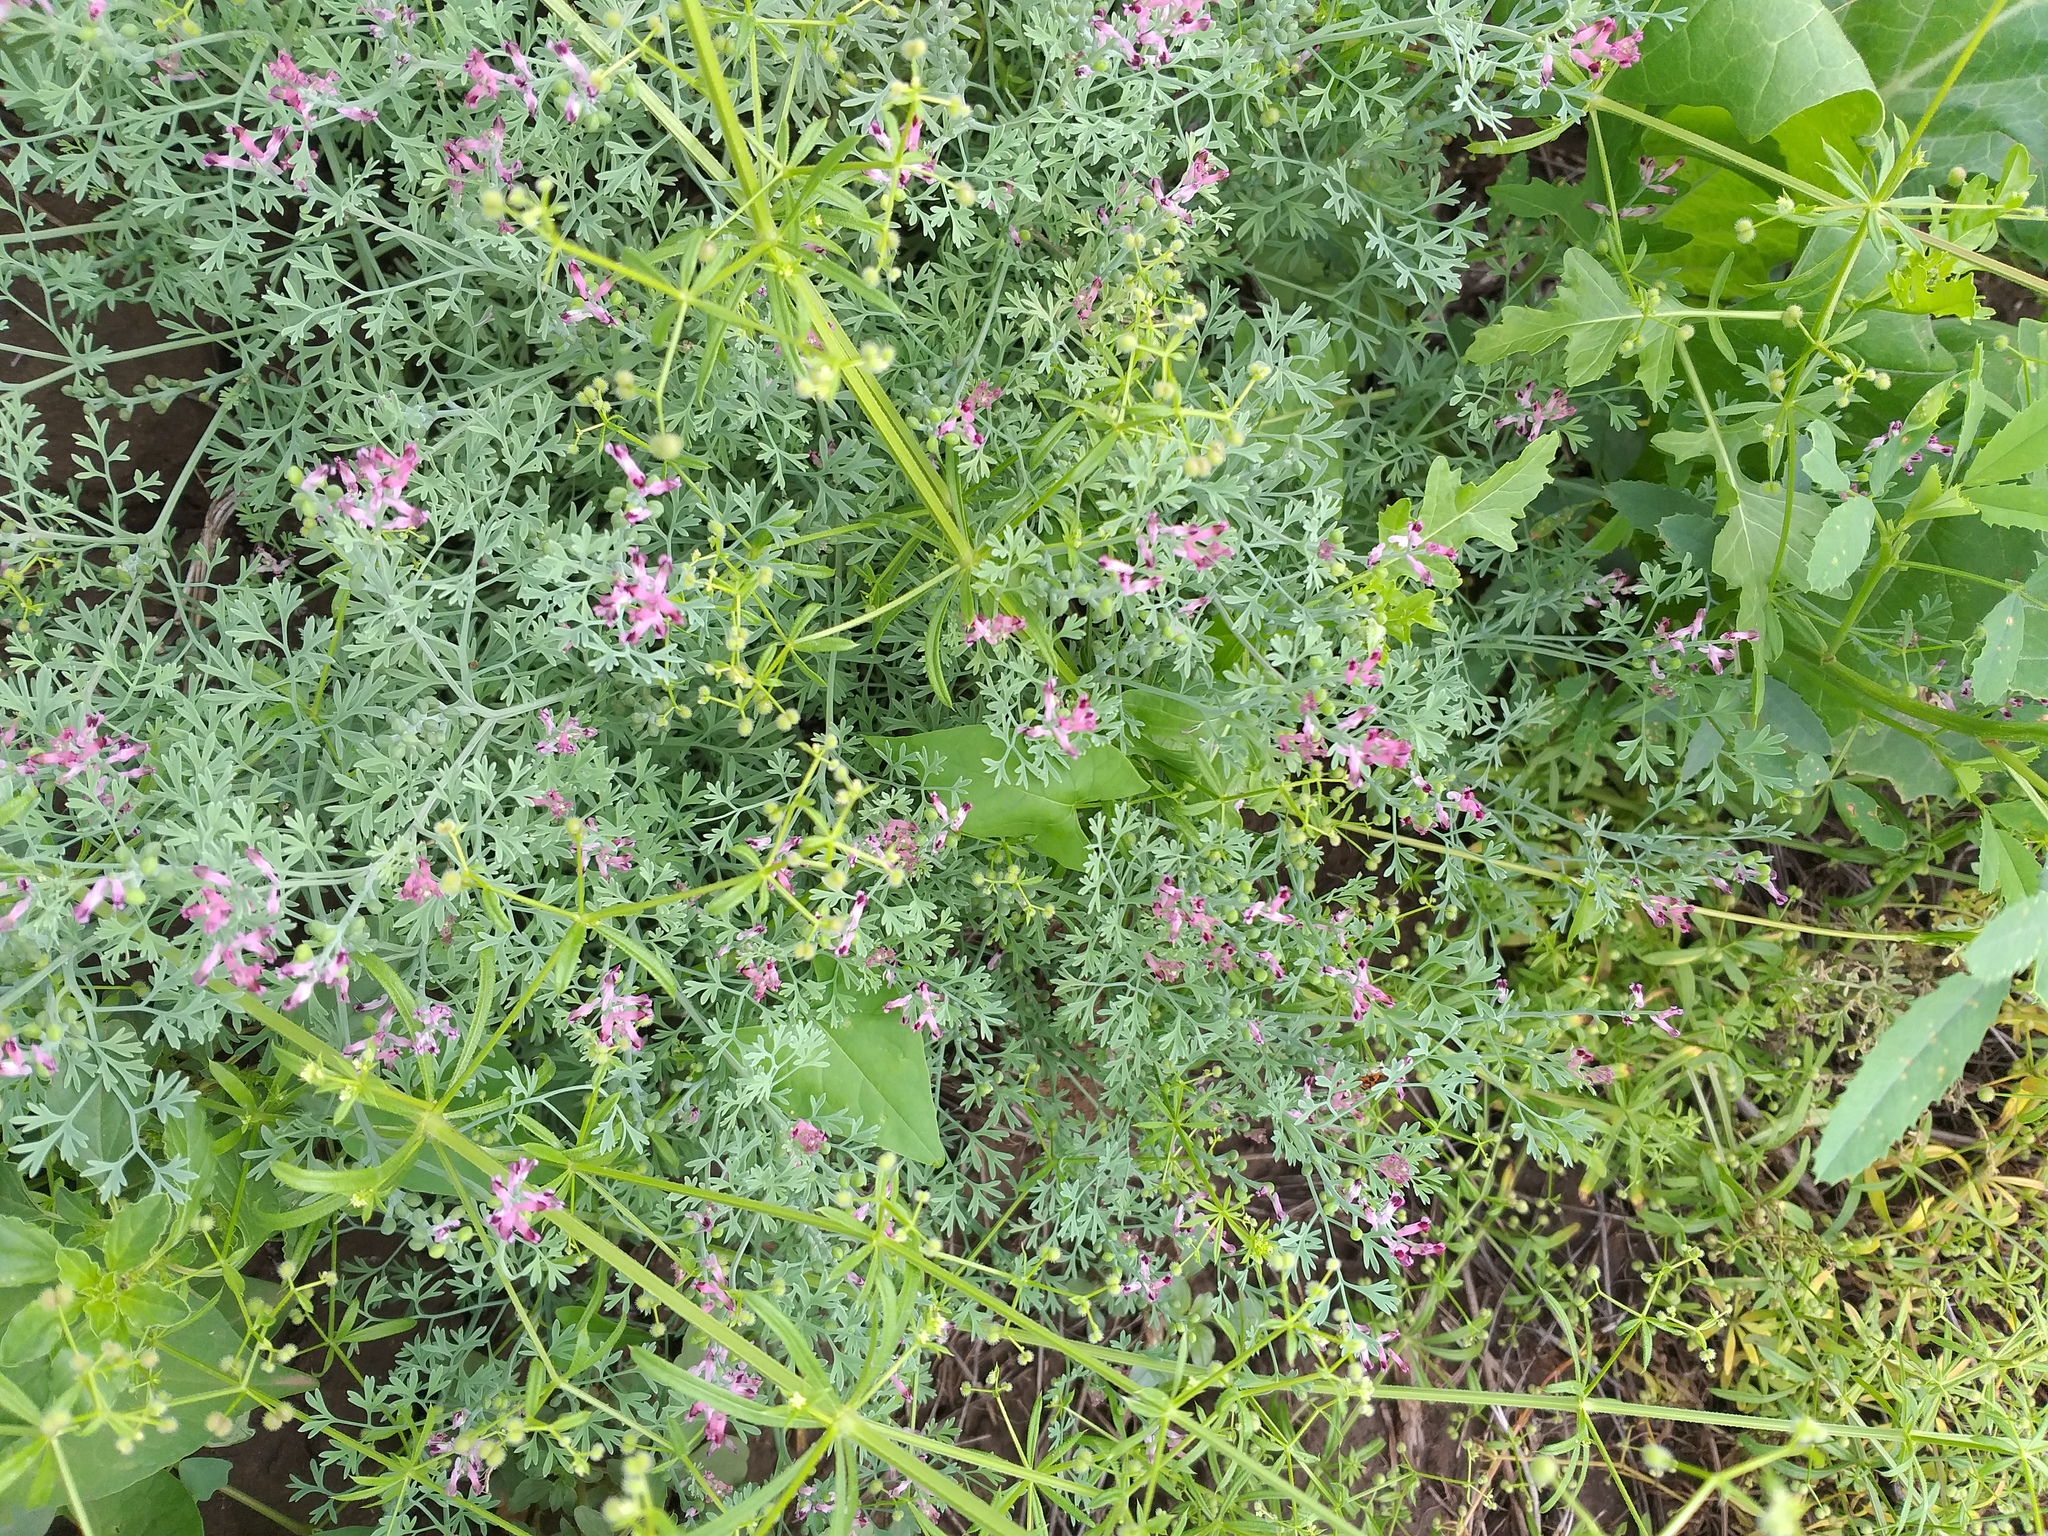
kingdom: Plantae
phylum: Tracheophyta
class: Magnoliopsida
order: Ranunculales
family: Papaveraceae
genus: Fumaria
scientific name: Fumaria schleicheri
